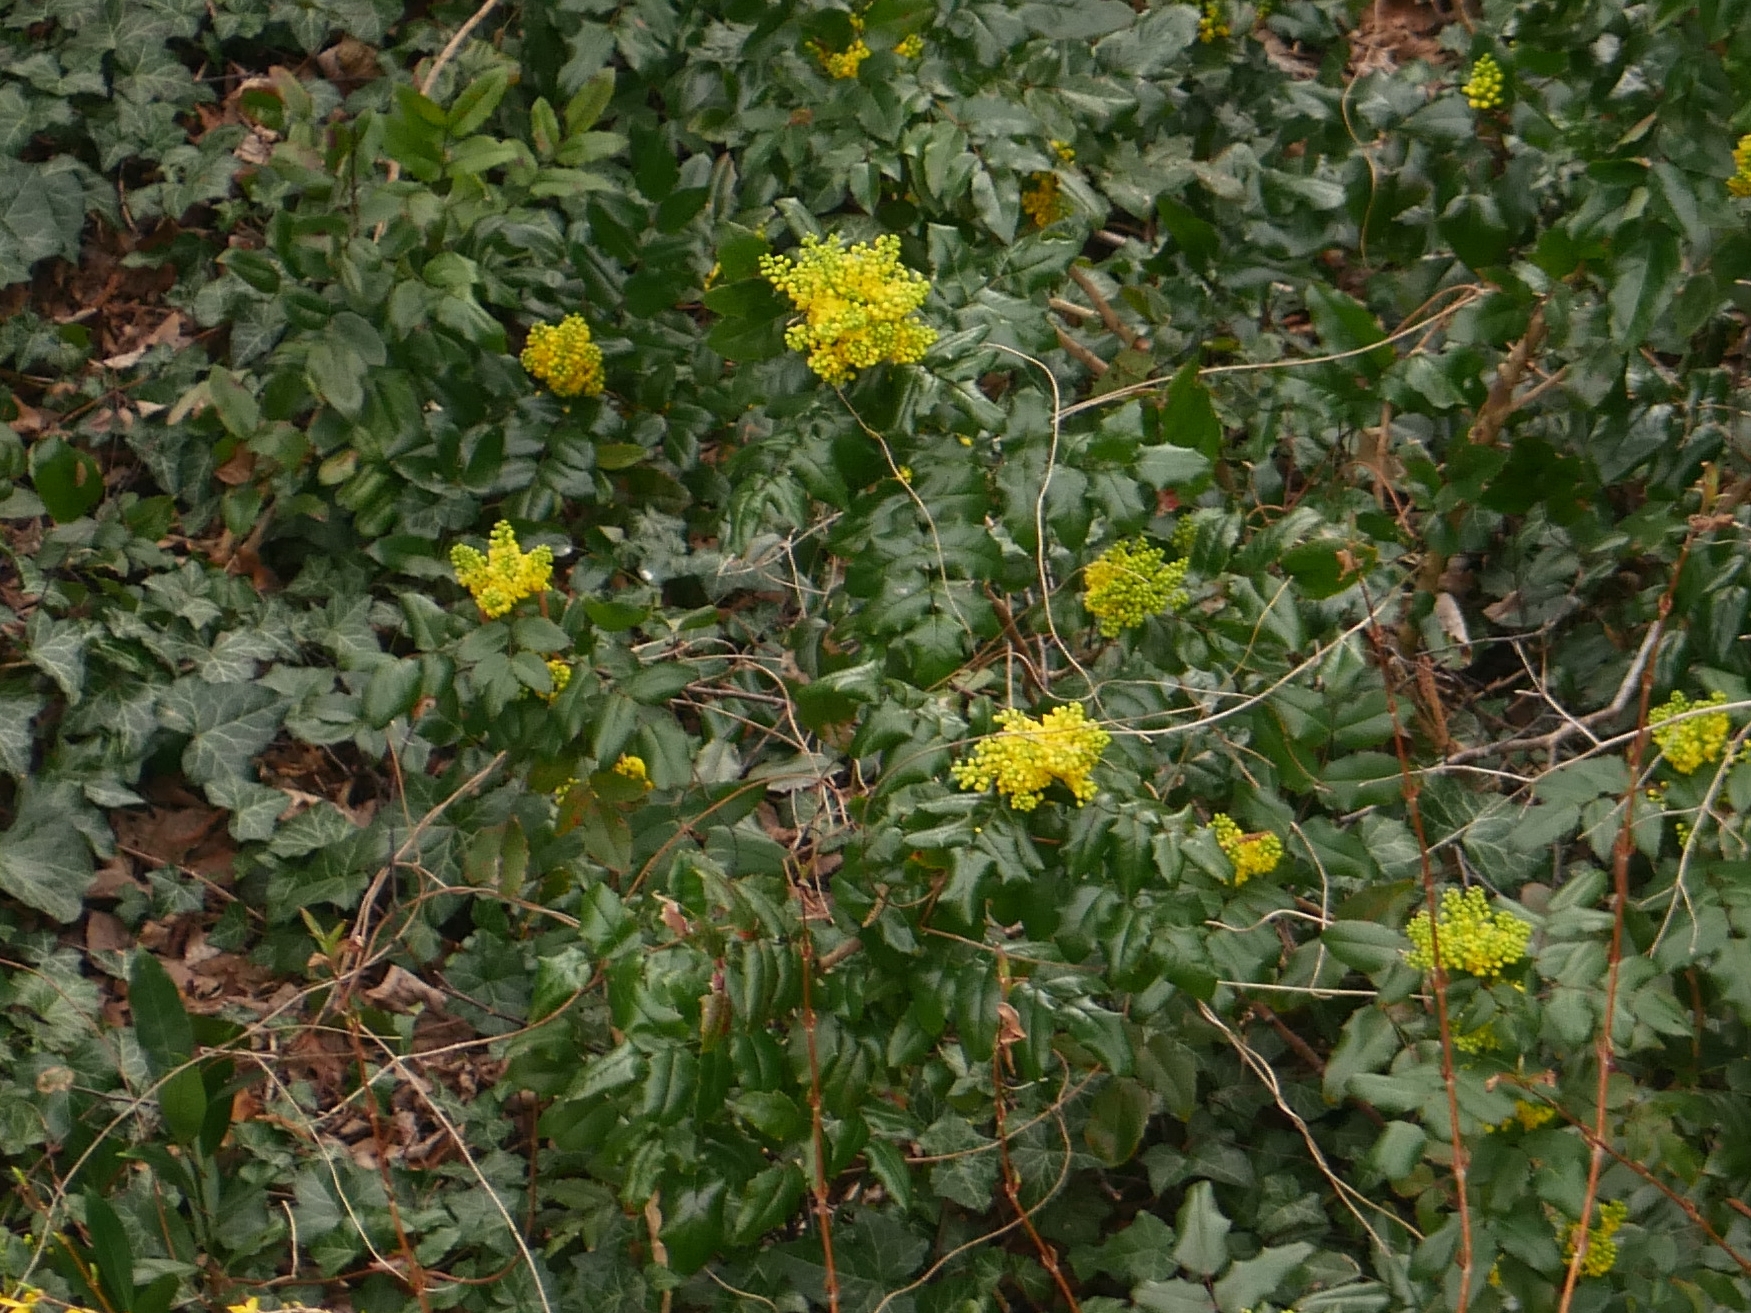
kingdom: Plantae
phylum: Tracheophyta
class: Magnoliopsida
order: Ranunculales
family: Berberidaceae
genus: Mahonia
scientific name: Mahonia aquifolium
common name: Oregon-grape
